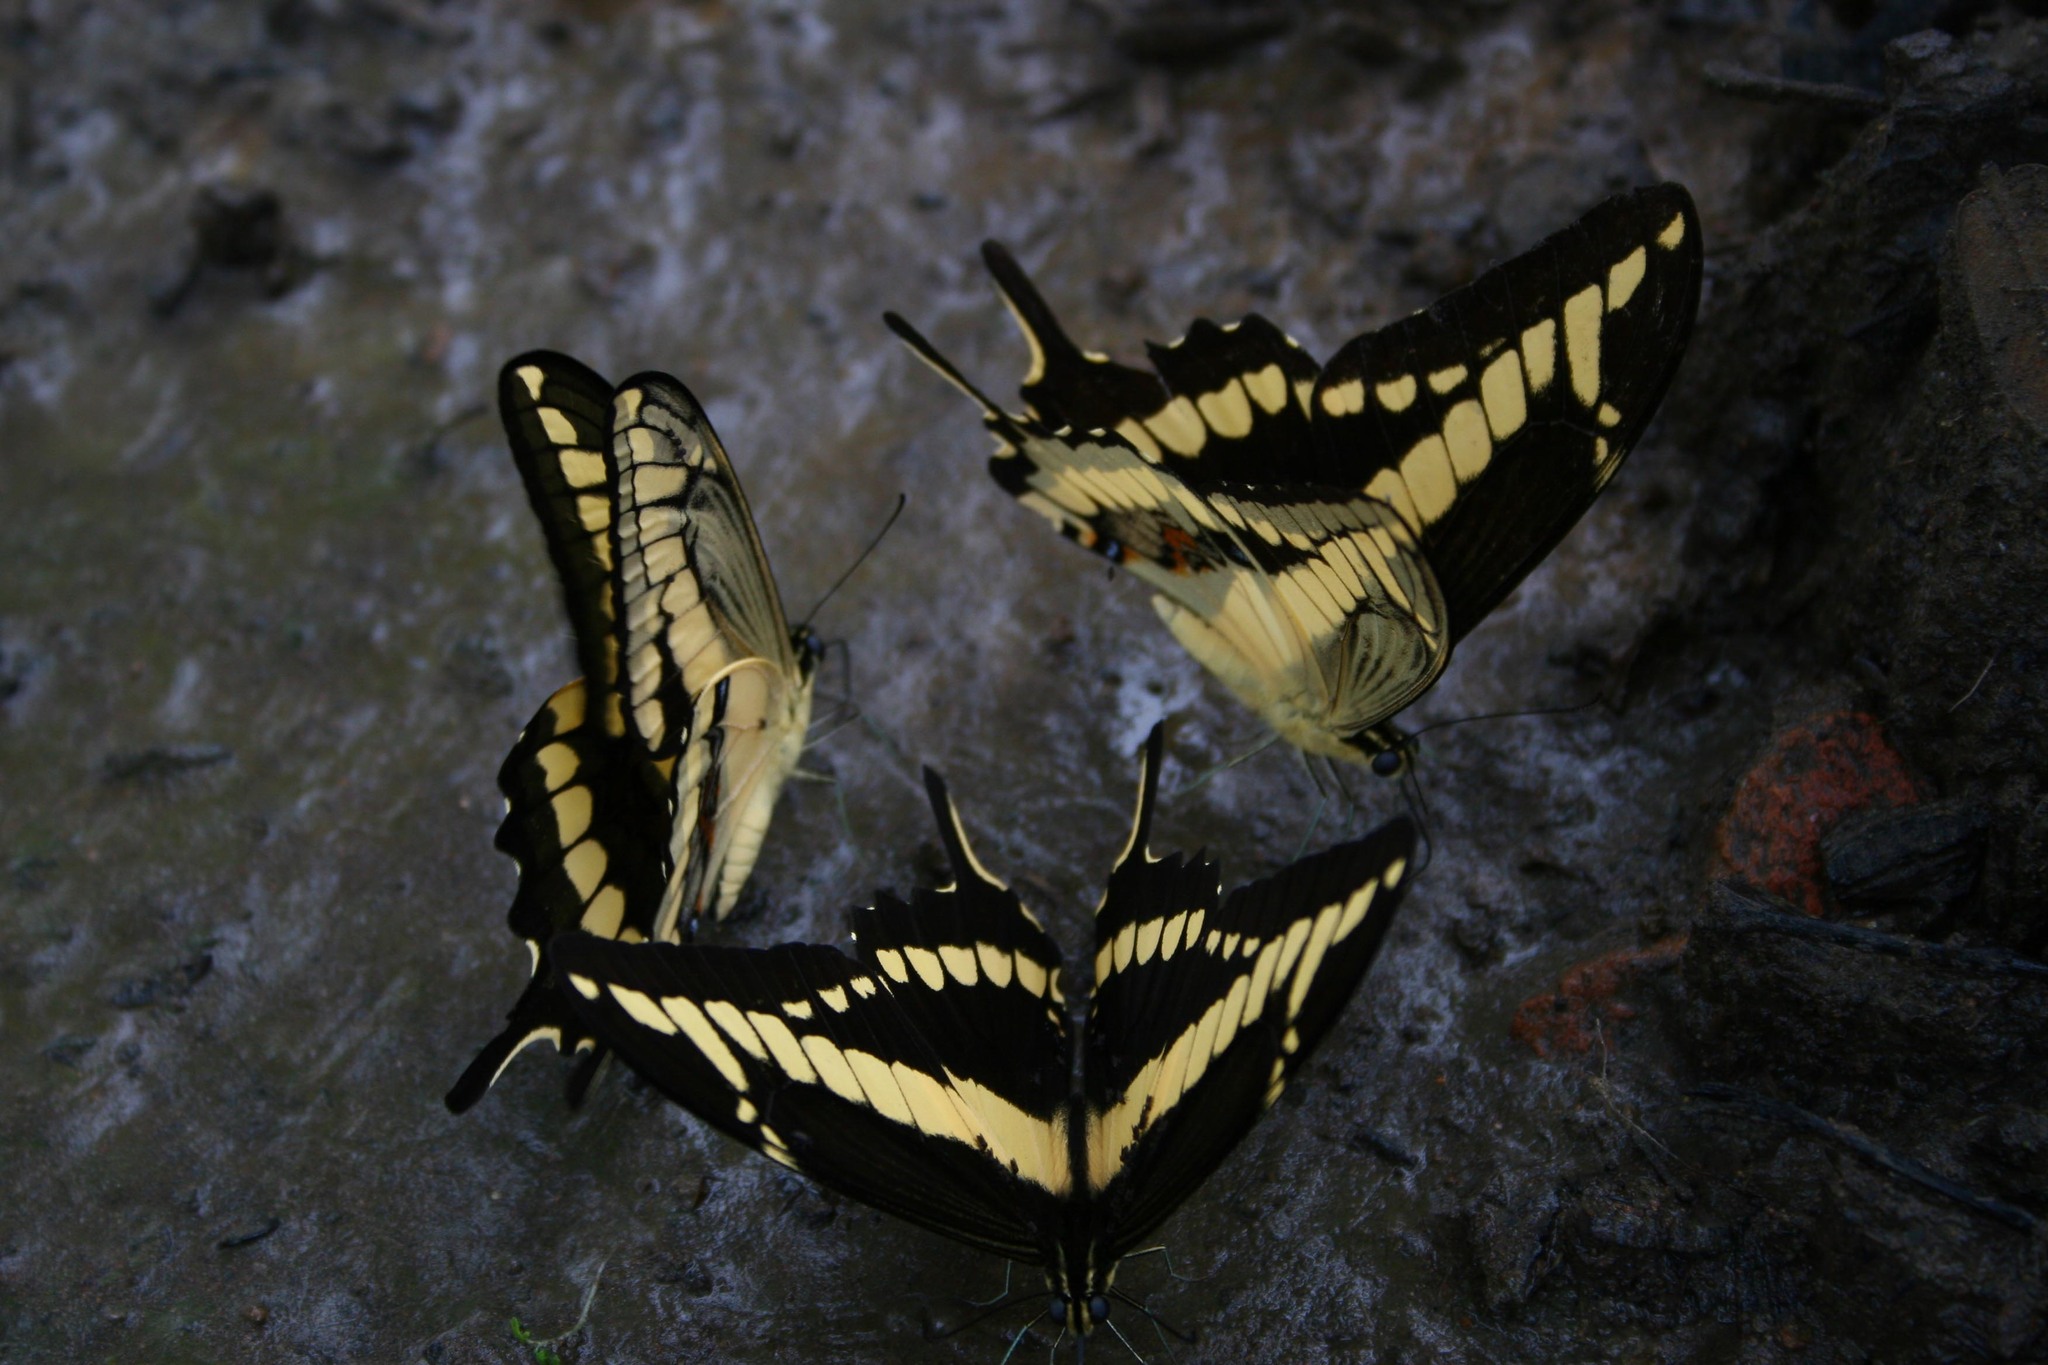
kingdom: Animalia
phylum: Arthropoda
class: Insecta
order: Lepidoptera
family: Papilionidae
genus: Heraclides
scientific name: Heraclides pallas
